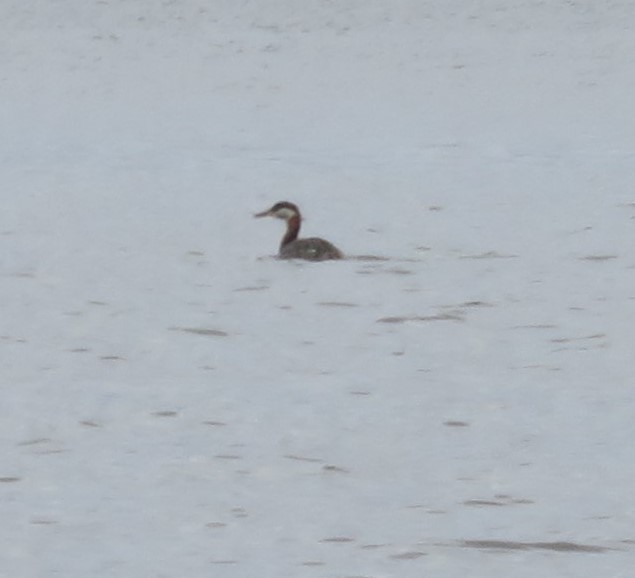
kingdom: Animalia
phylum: Chordata
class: Aves
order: Podicipediformes
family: Podicipedidae
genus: Podiceps
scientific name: Podiceps grisegena
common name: Red-necked grebe
